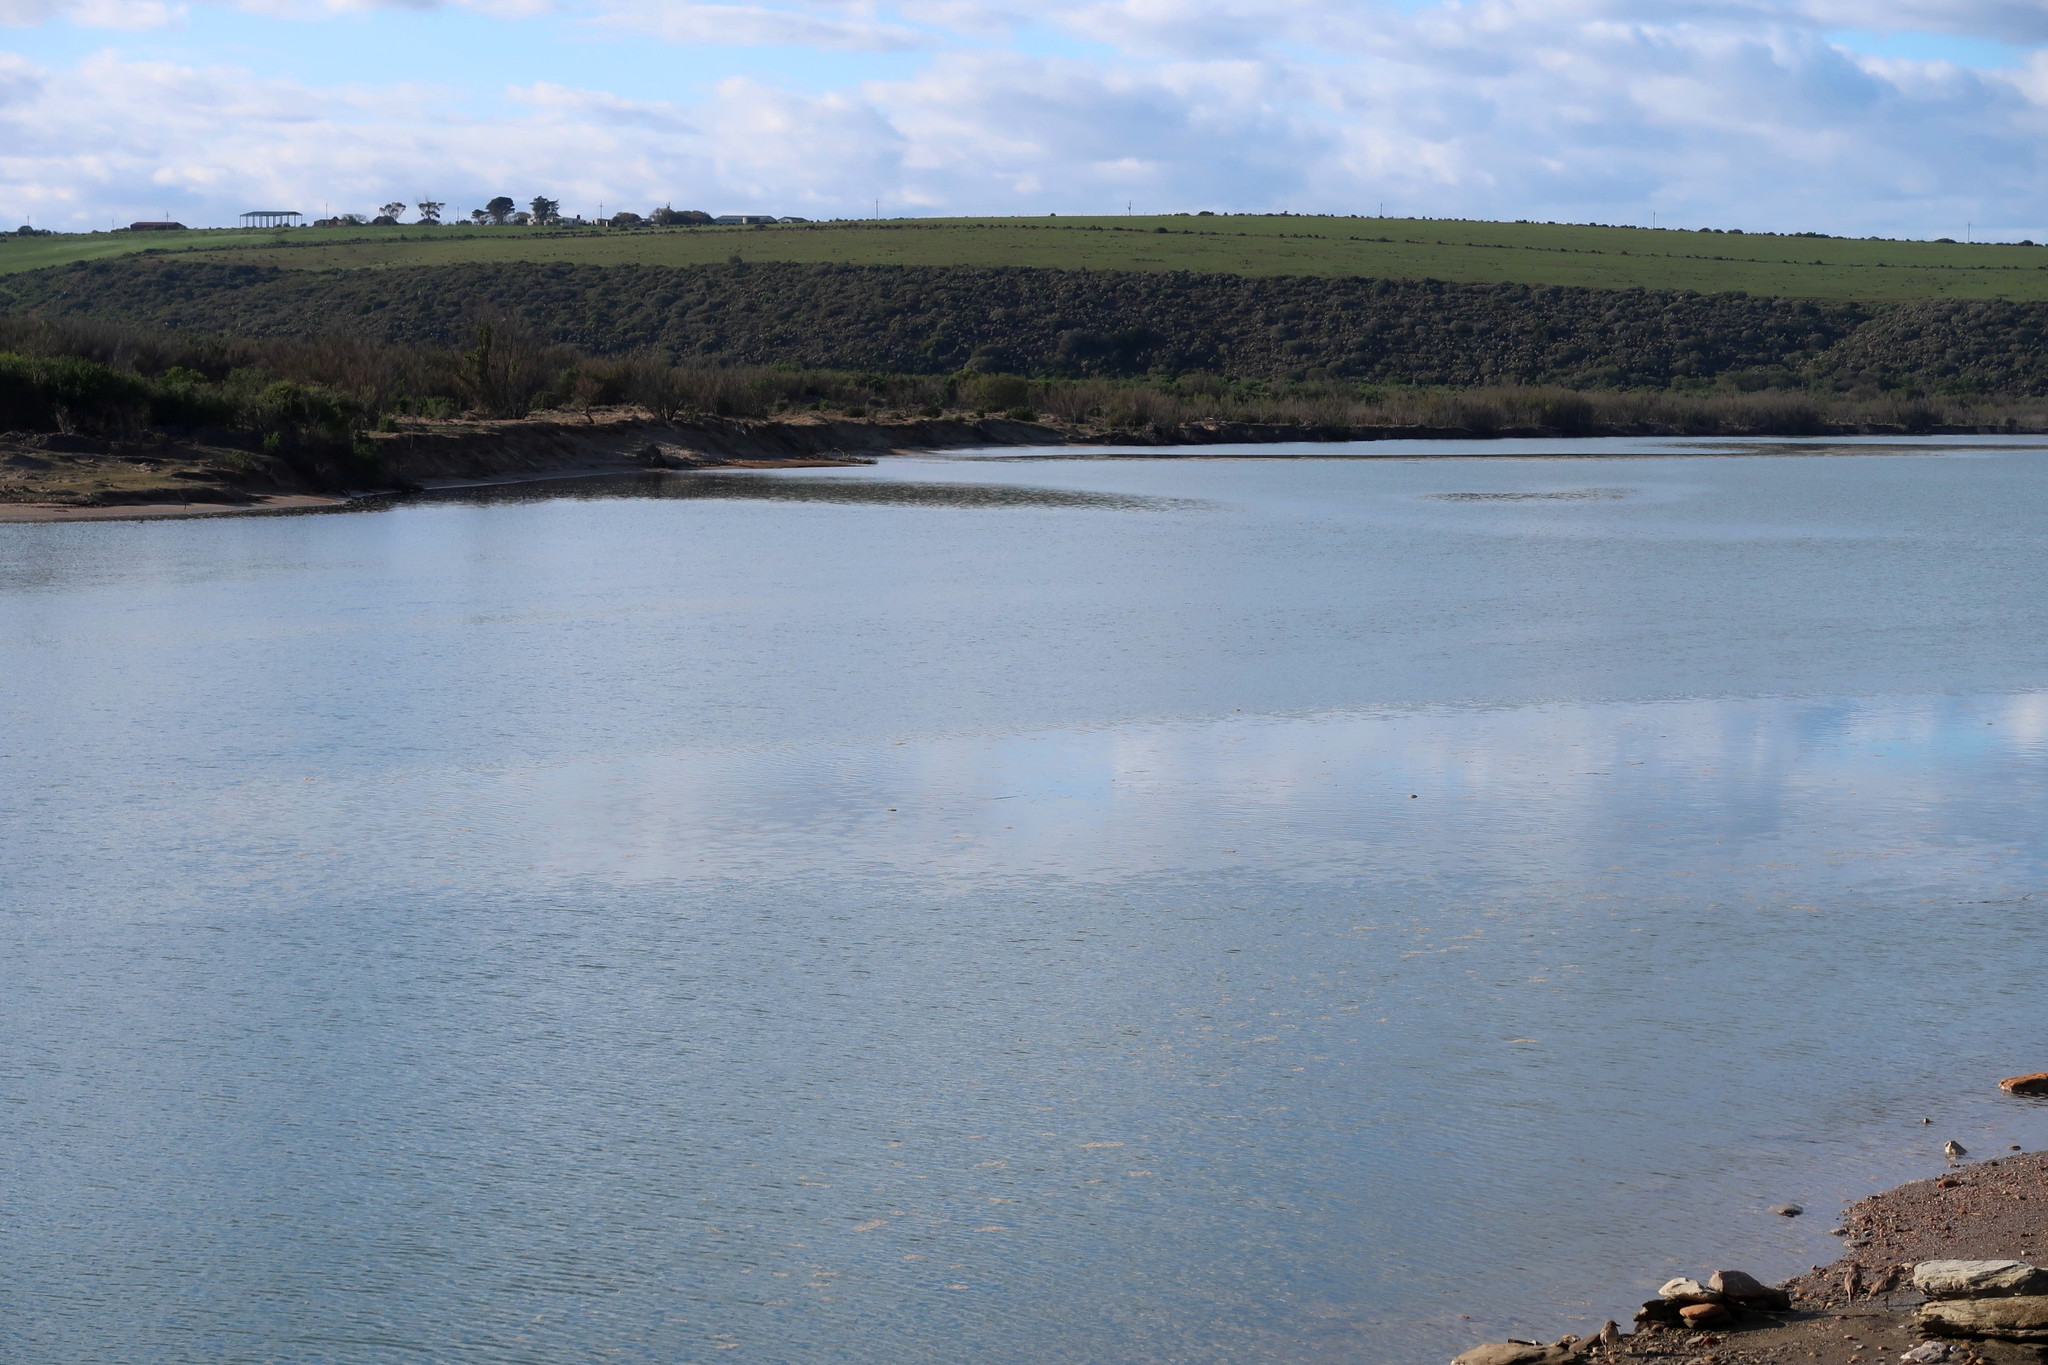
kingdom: Animalia
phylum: Chordata
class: Aves
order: Pelecaniformes
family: Ardeidae
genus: Egretta
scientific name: Egretta garzetta
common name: Little egret
